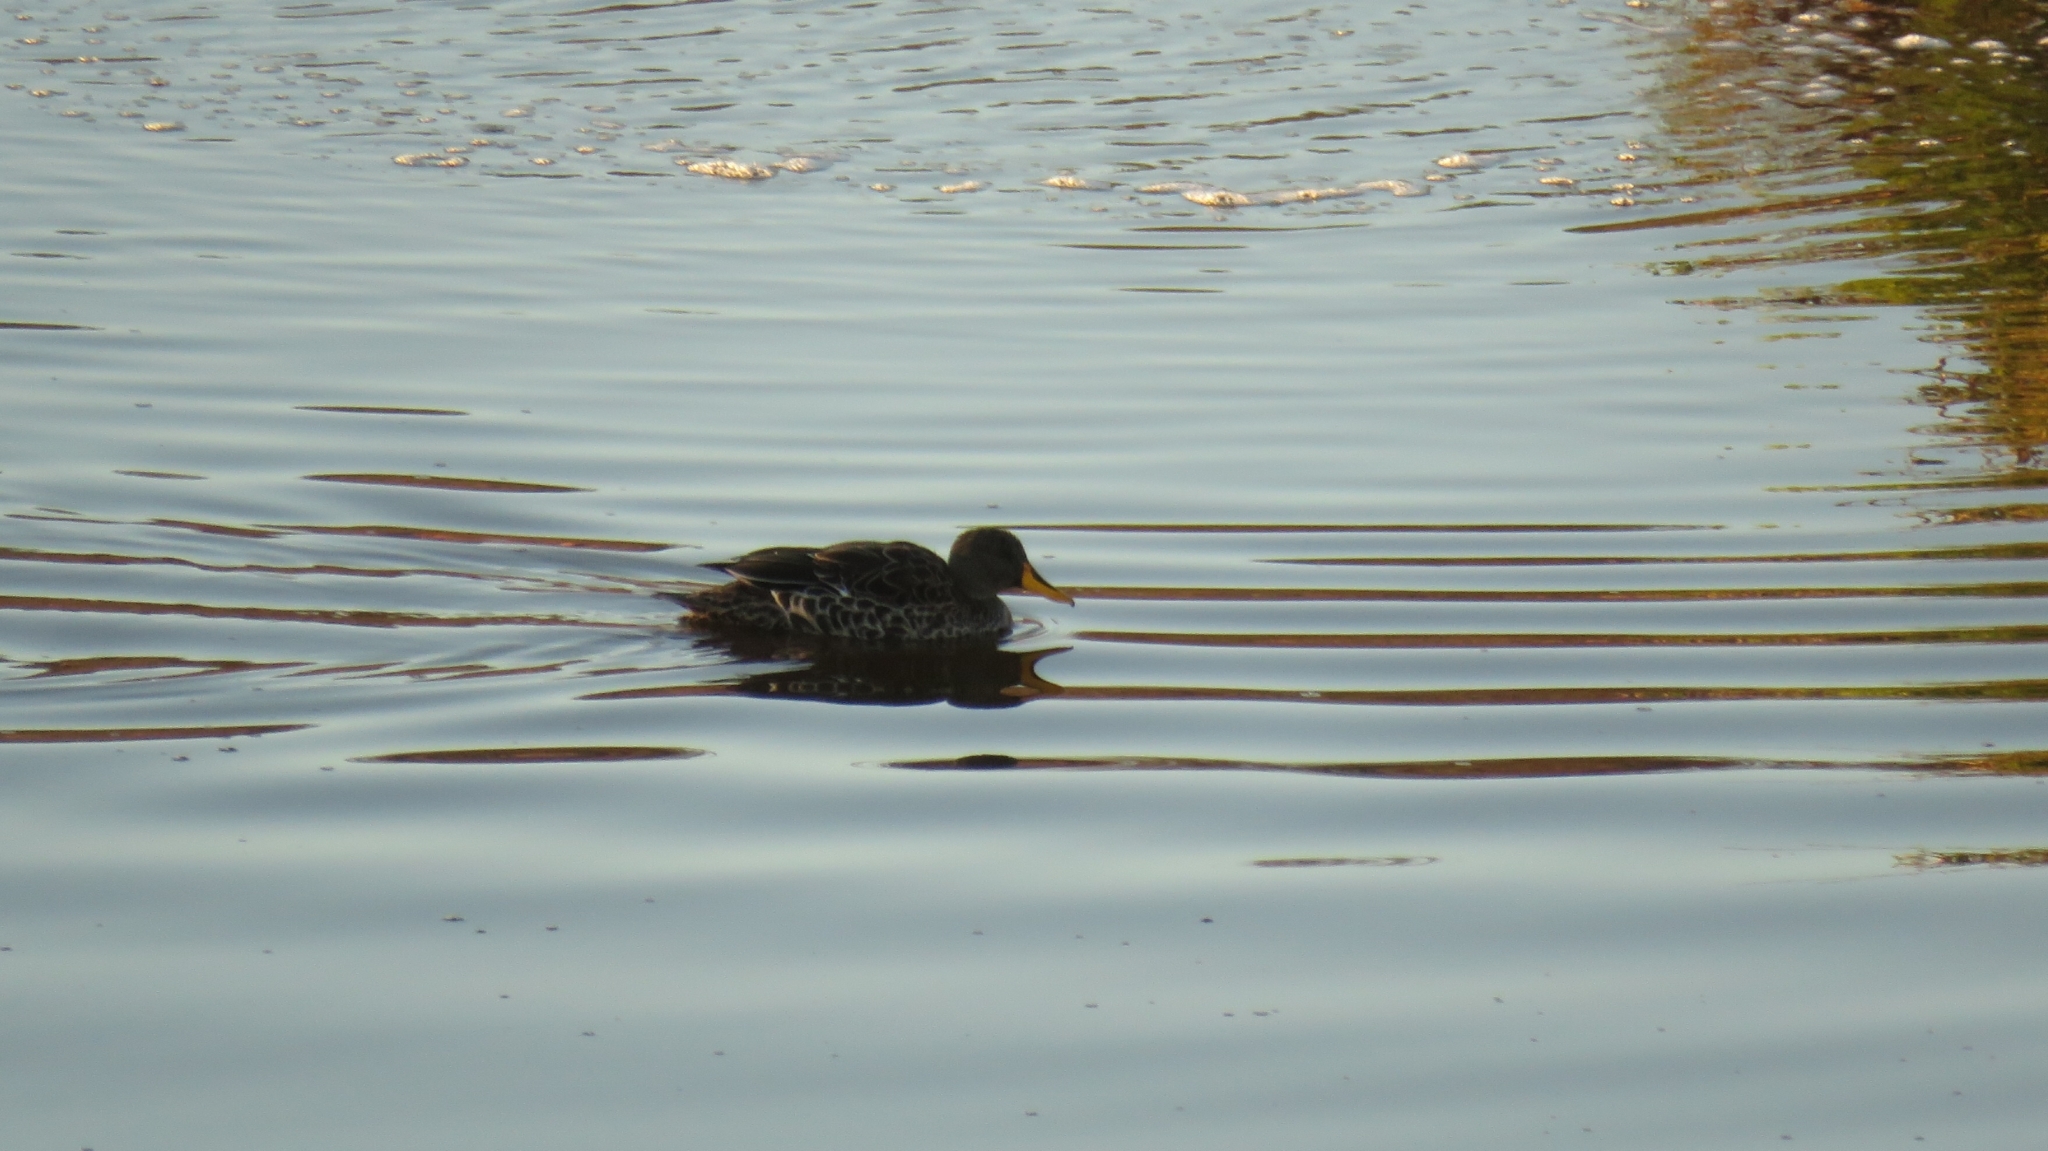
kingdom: Animalia
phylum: Chordata
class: Aves
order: Anseriformes
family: Anatidae
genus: Anas
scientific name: Anas undulata
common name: Yellow-billed duck
